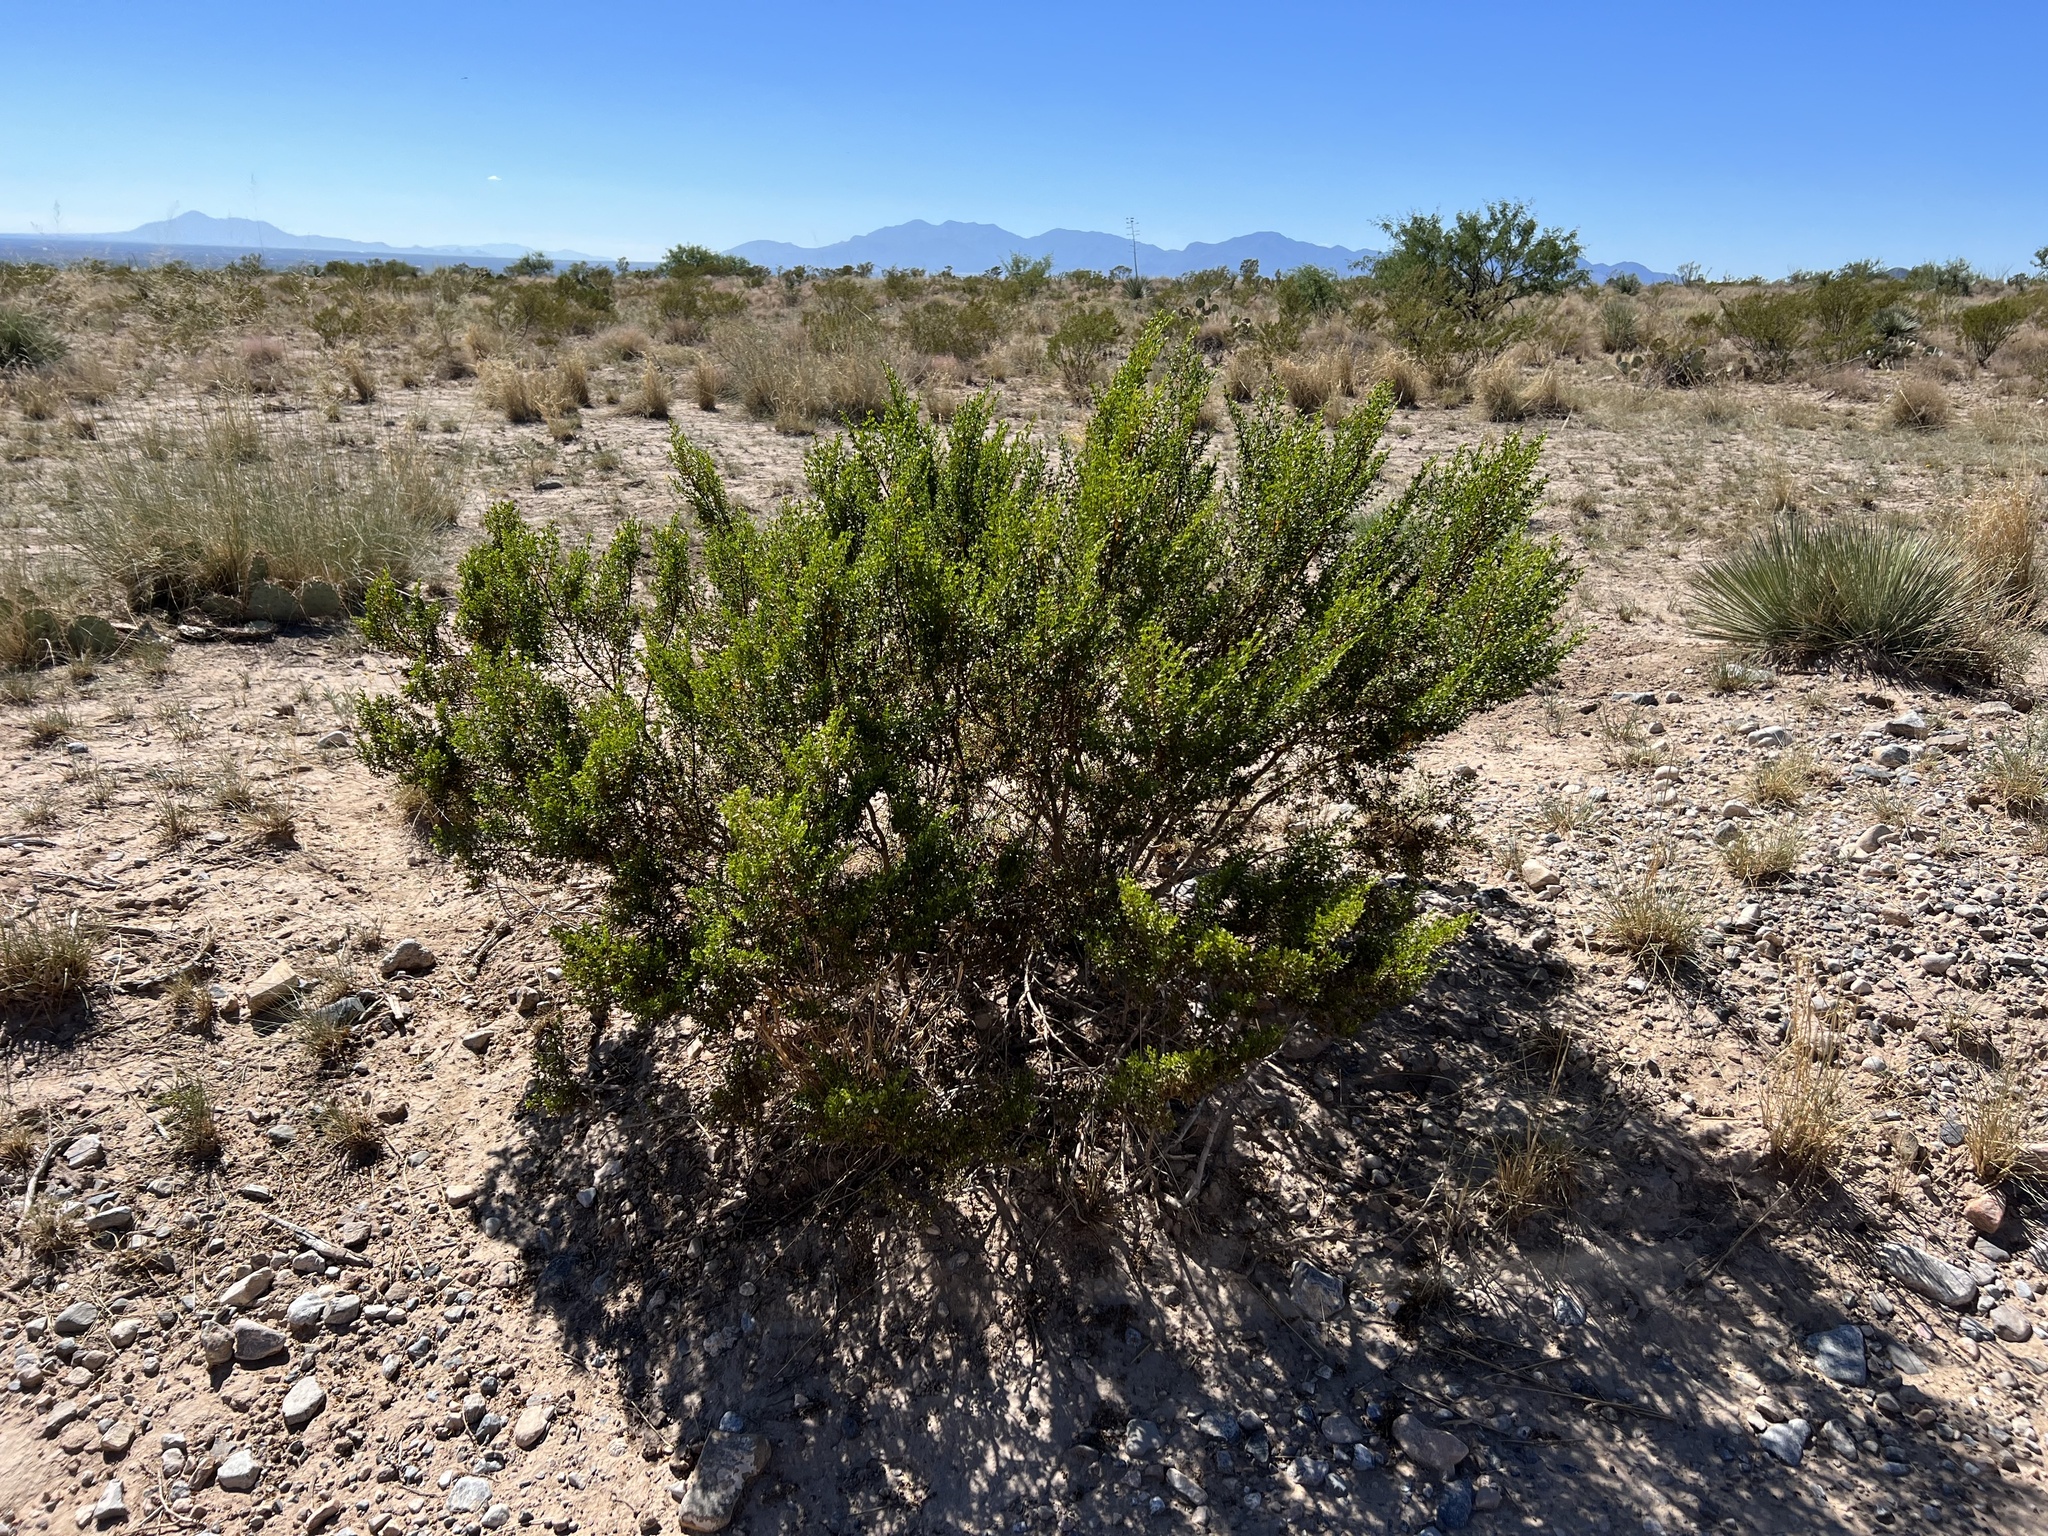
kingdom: Plantae
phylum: Tracheophyta
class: Magnoliopsida
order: Zygophyllales
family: Zygophyllaceae
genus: Larrea
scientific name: Larrea tridentata
